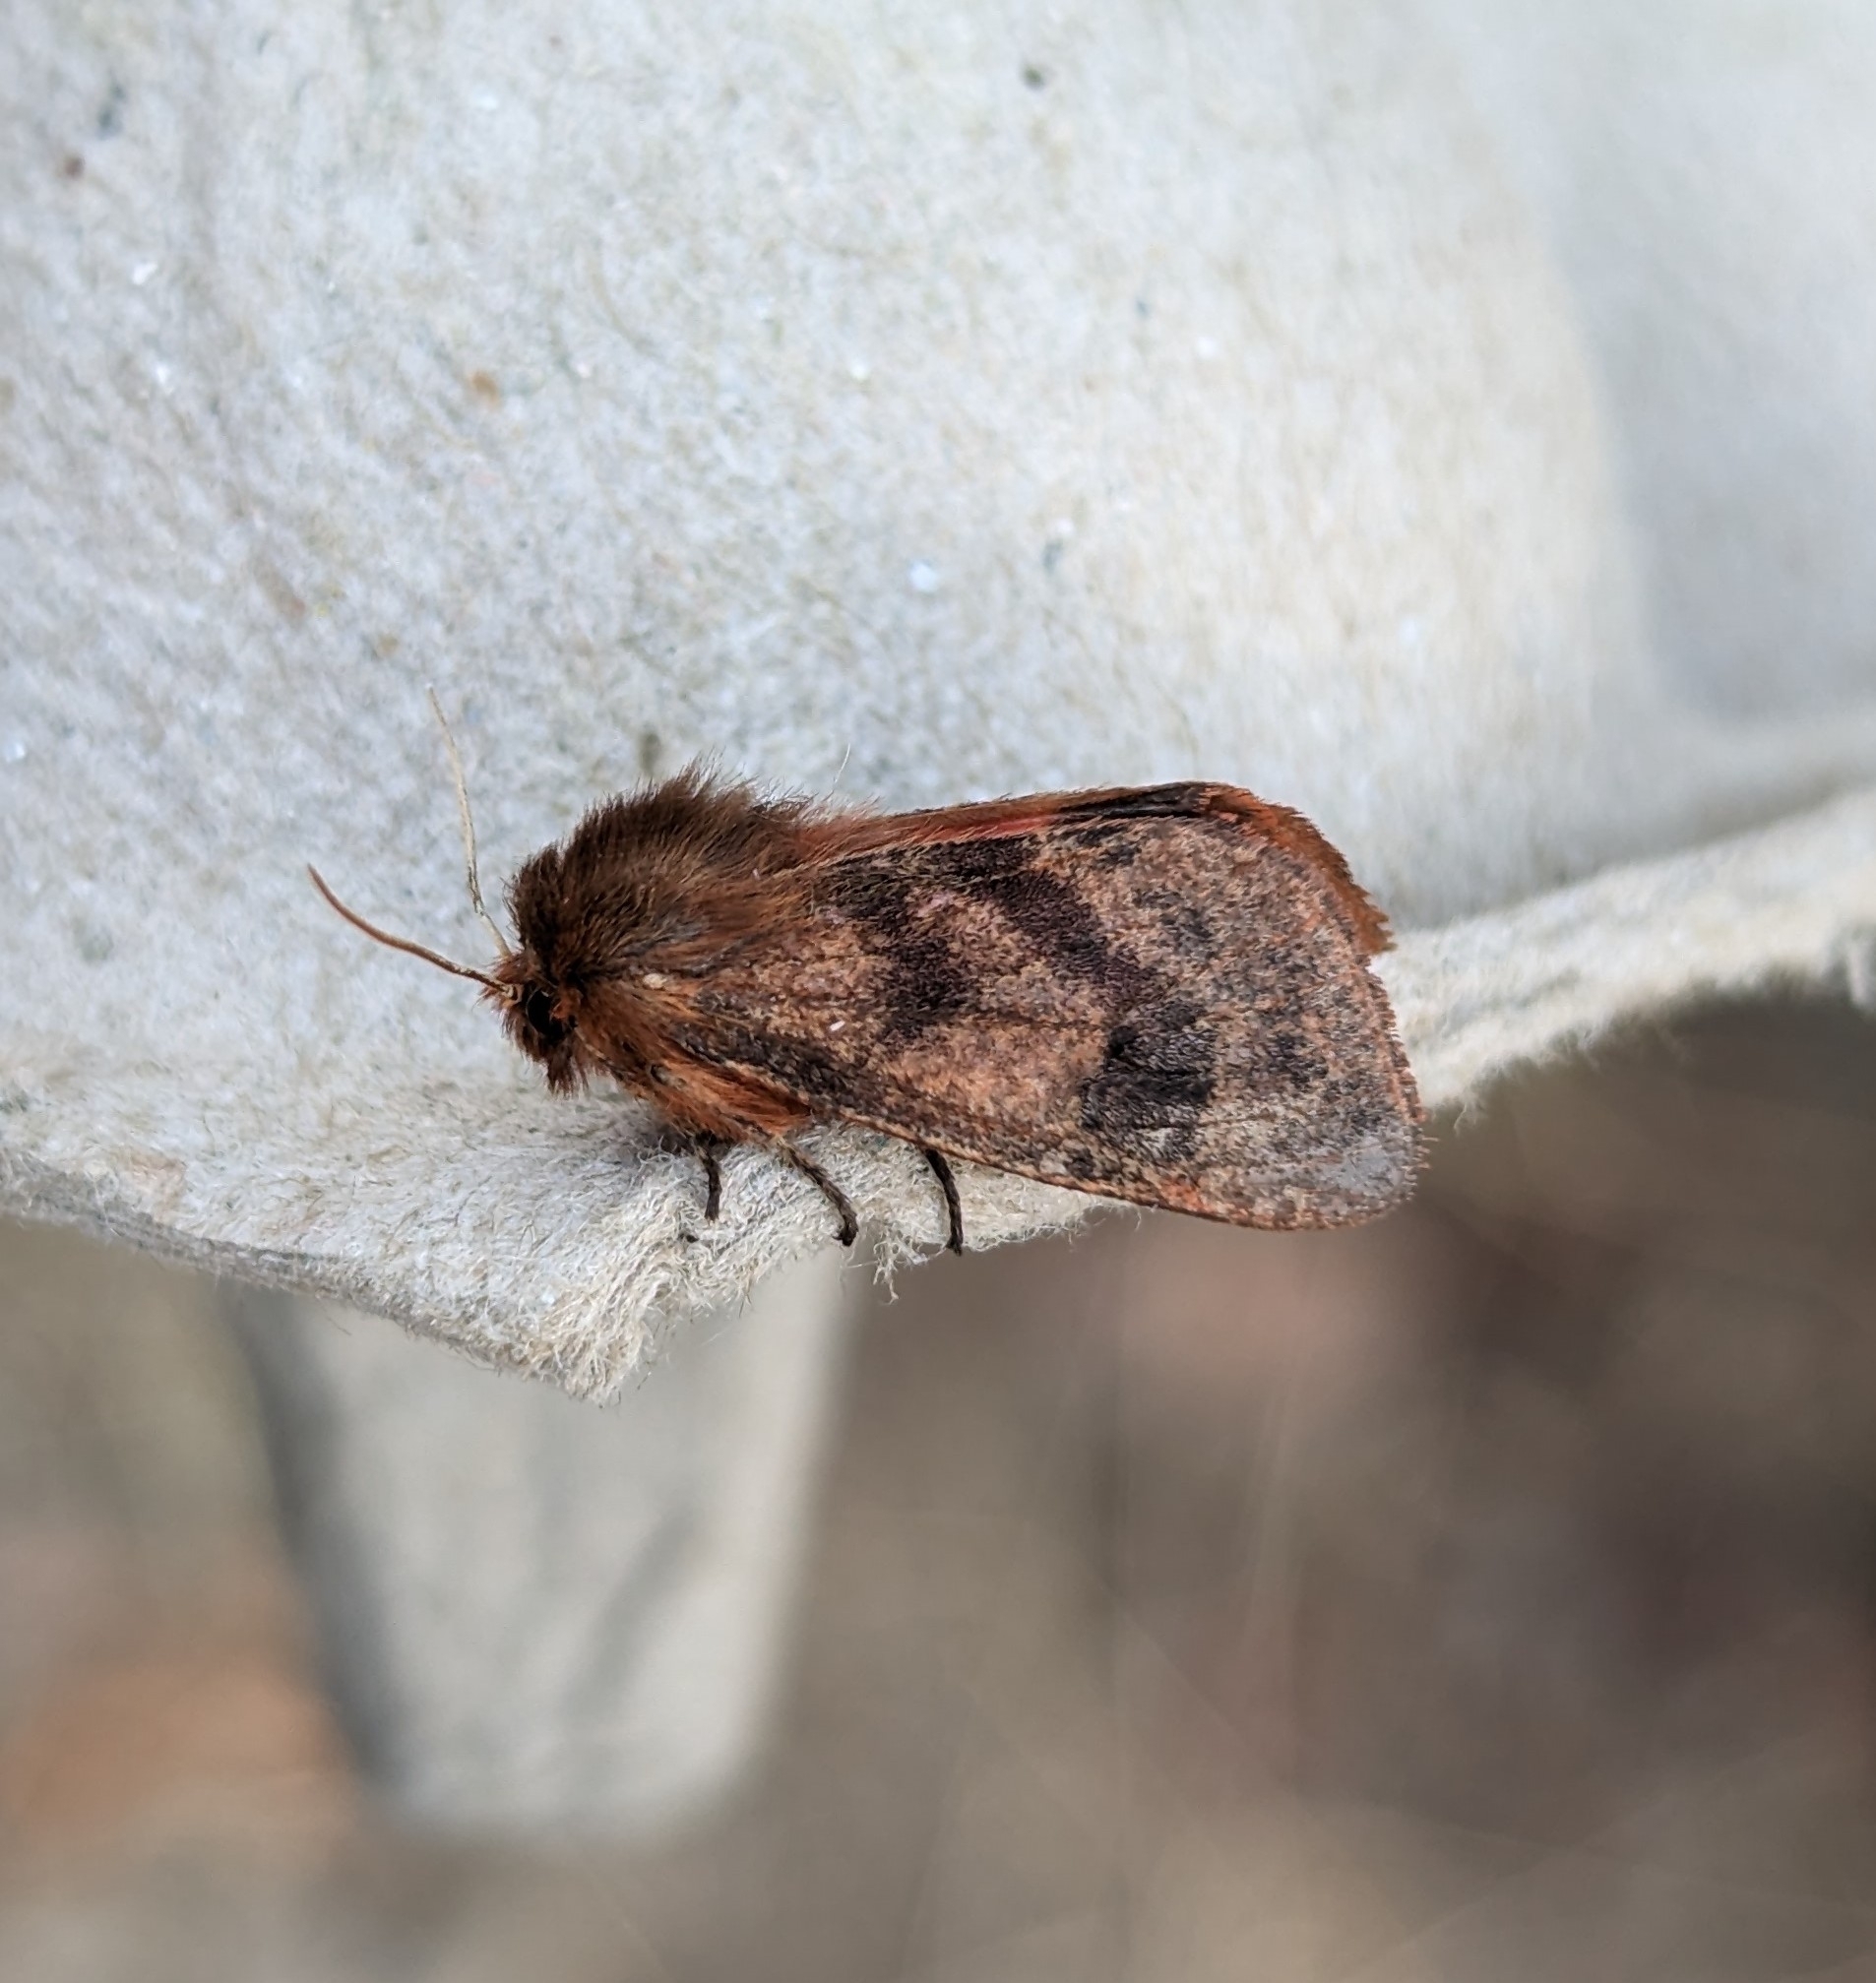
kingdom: Animalia
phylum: Arthropoda
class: Insecta
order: Lepidoptera
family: Erebidae
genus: Phragmatobia
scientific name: Phragmatobia assimilans
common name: Large ruby tiger moth
